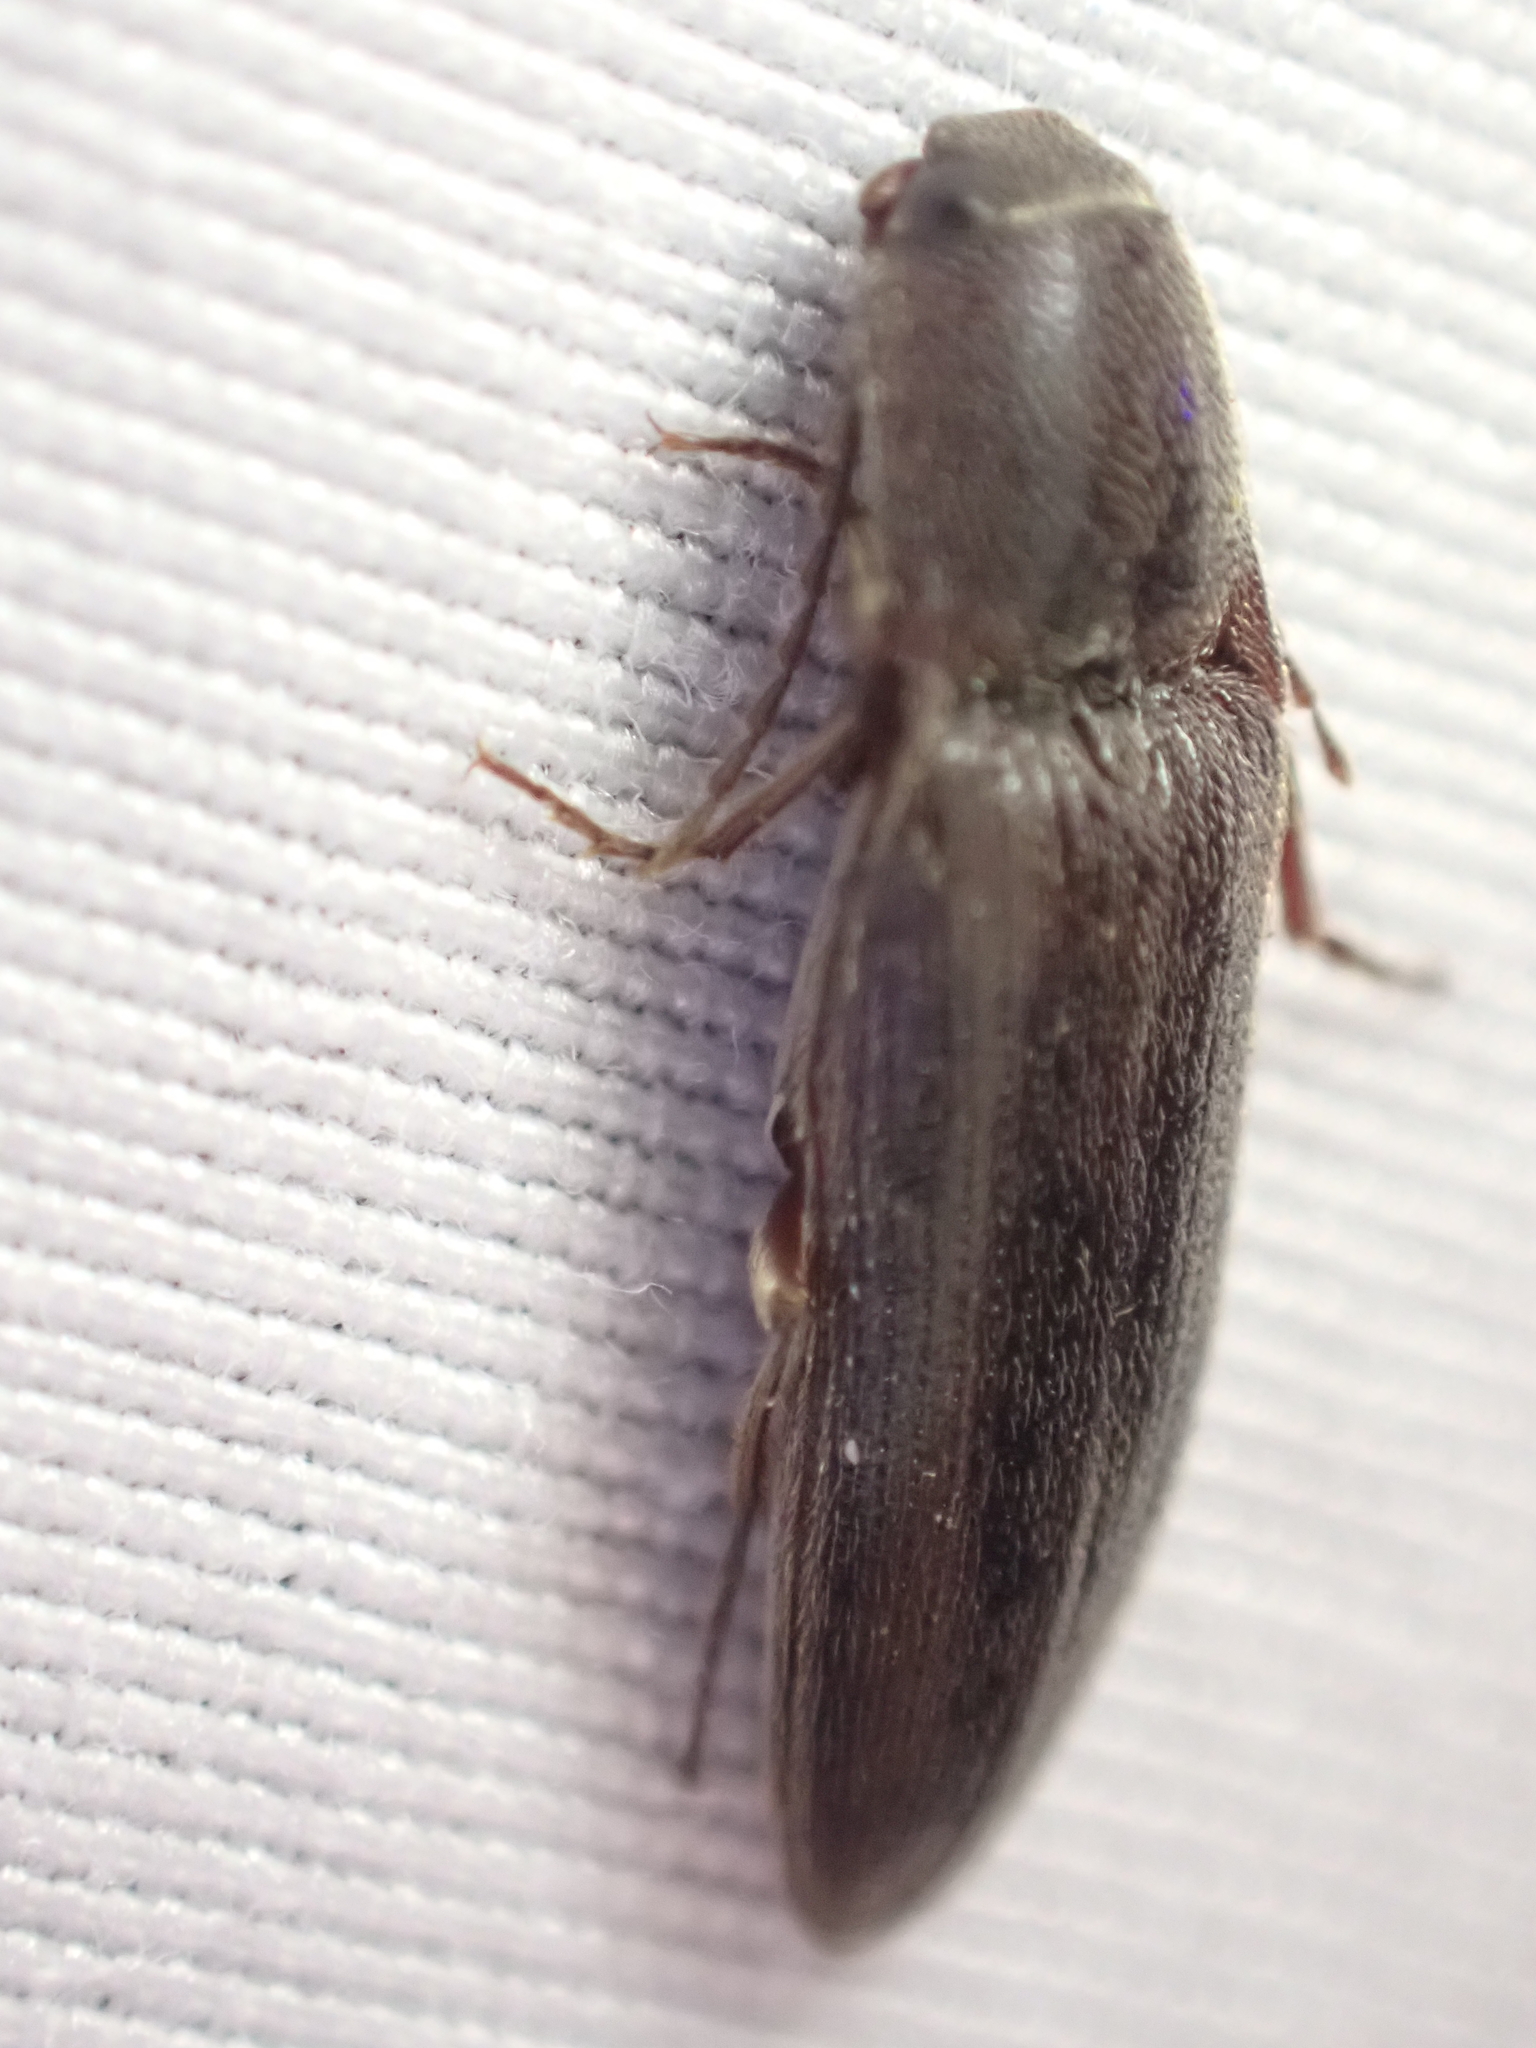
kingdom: Animalia
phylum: Arthropoda
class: Insecta
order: Coleoptera
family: Elateridae
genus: Melanotus
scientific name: Melanotus longulus
